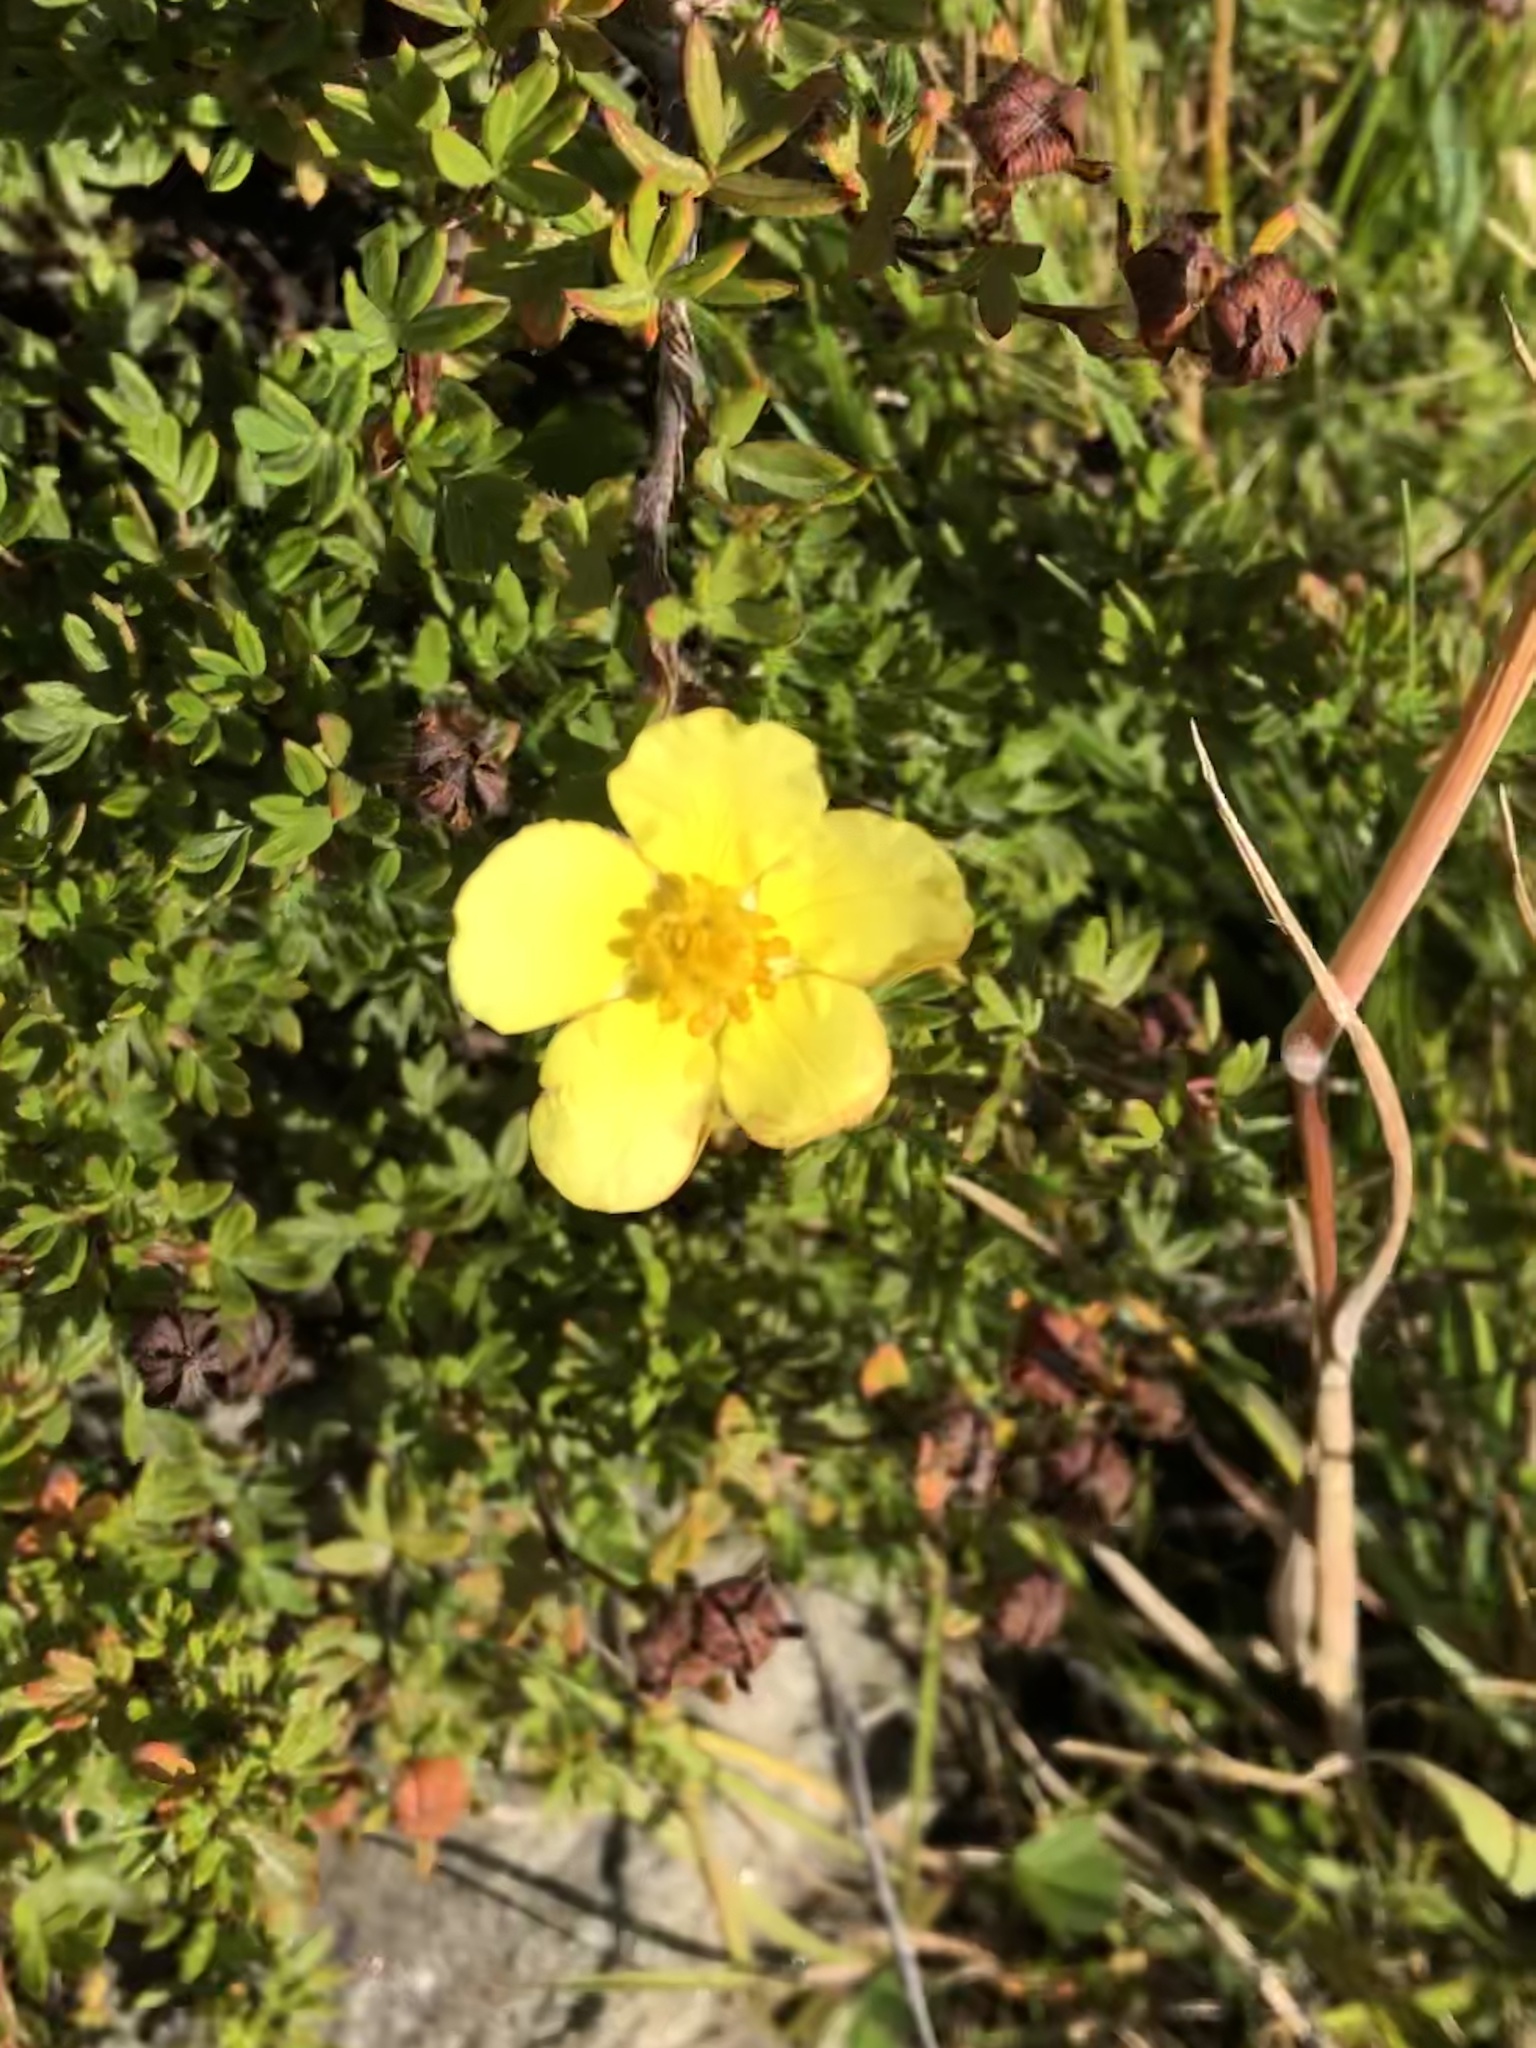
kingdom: Plantae
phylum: Tracheophyta
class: Magnoliopsida
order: Rosales
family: Rosaceae
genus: Dasiphora
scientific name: Dasiphora fruticosa
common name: Shrubby cinquefoil
